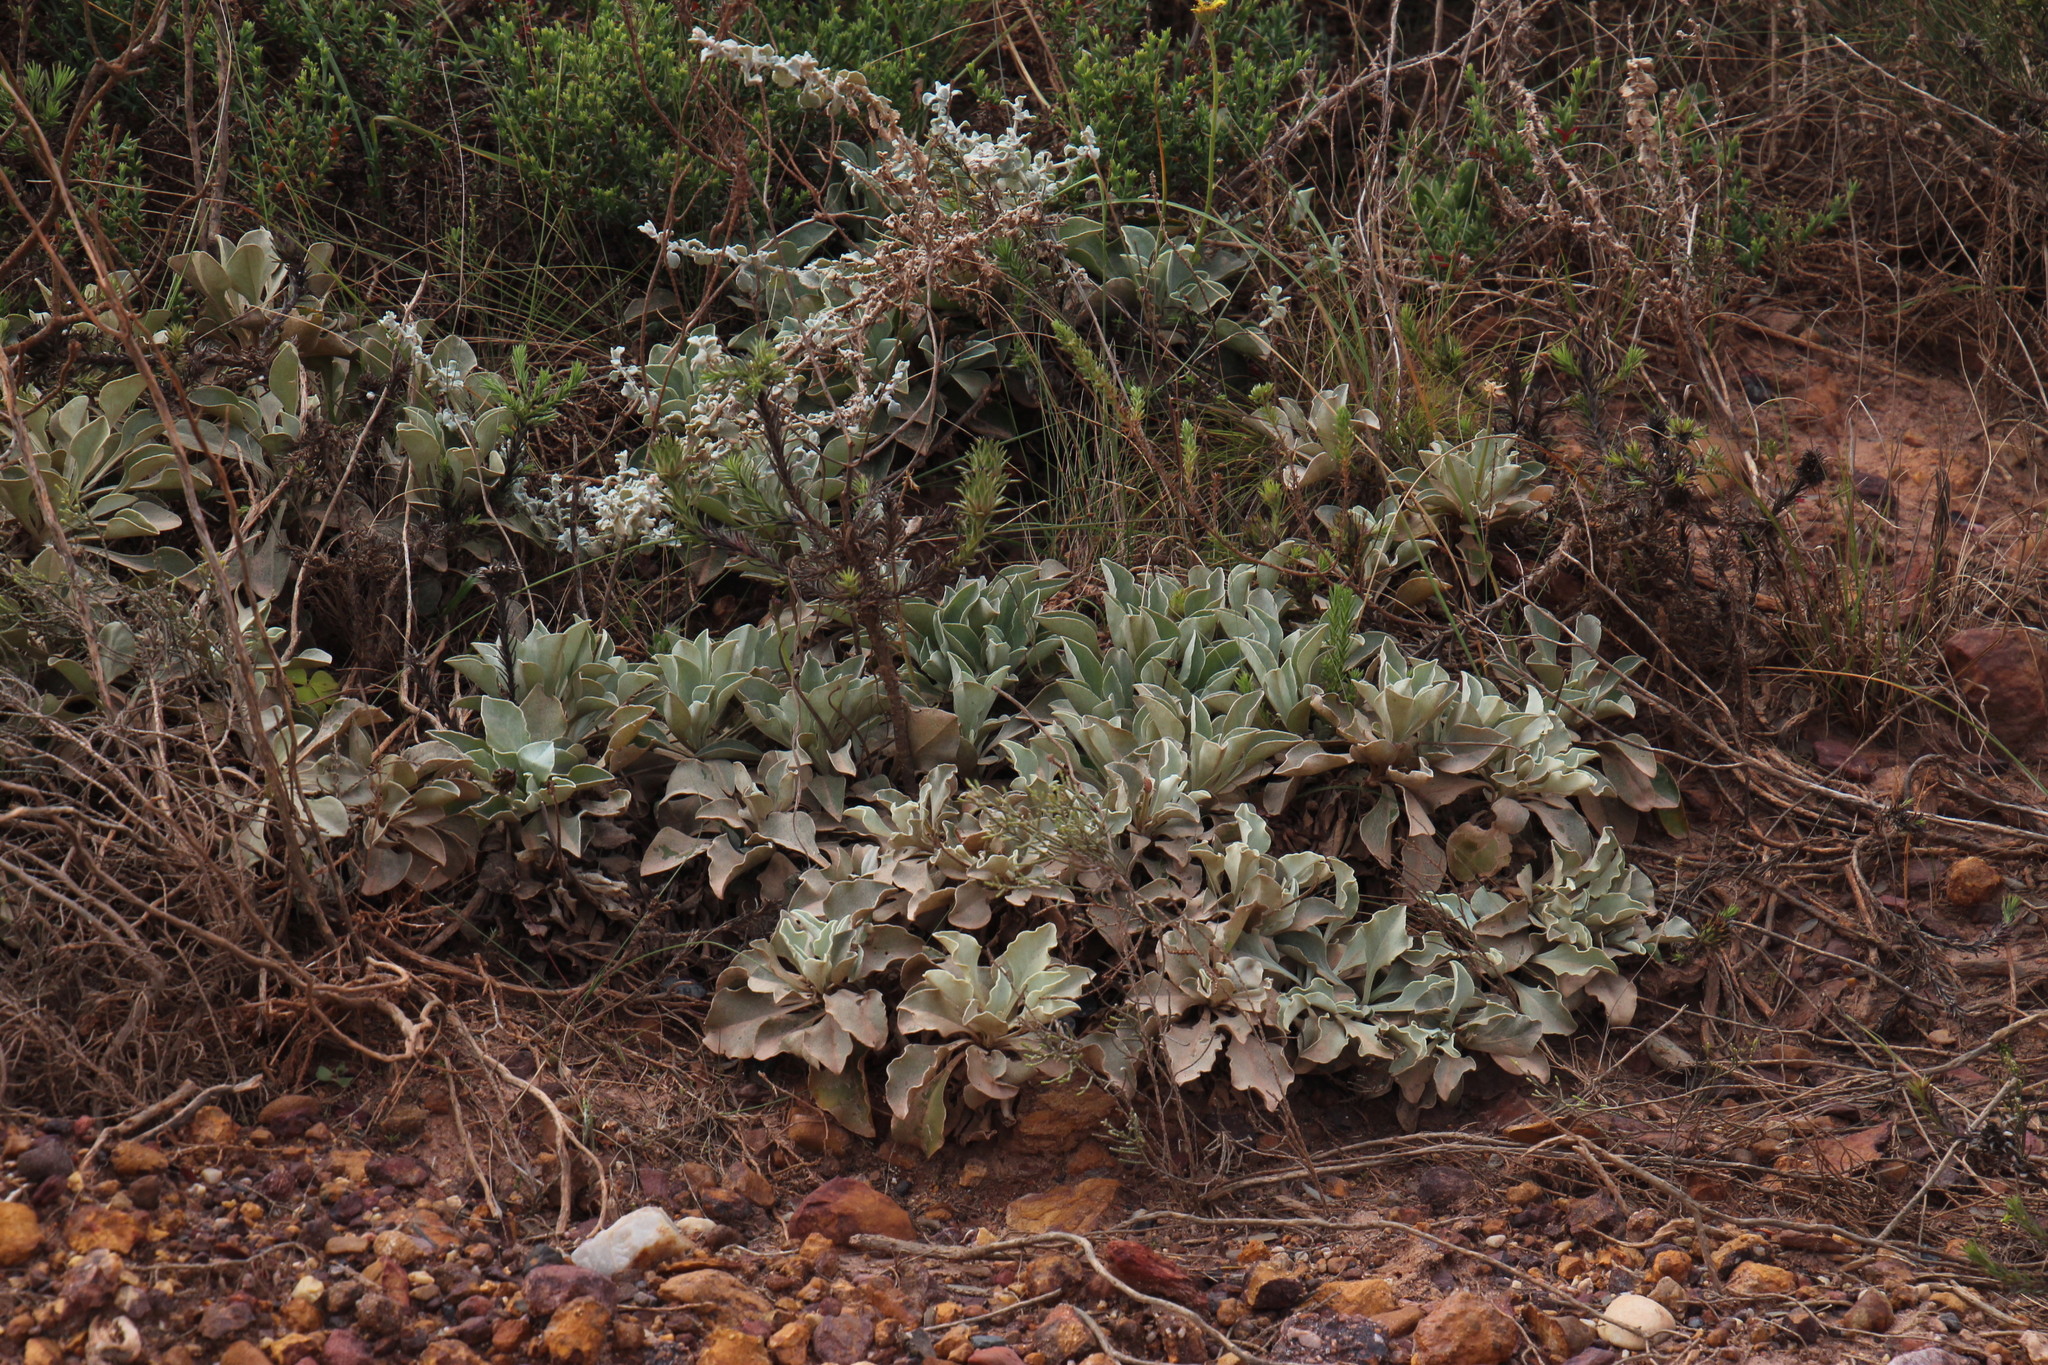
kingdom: Plantae
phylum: Tracheophyta
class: Magnoliopsida
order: Asterales
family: Asteraceae
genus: Osteospermum
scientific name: Osteospermum tomentosum
